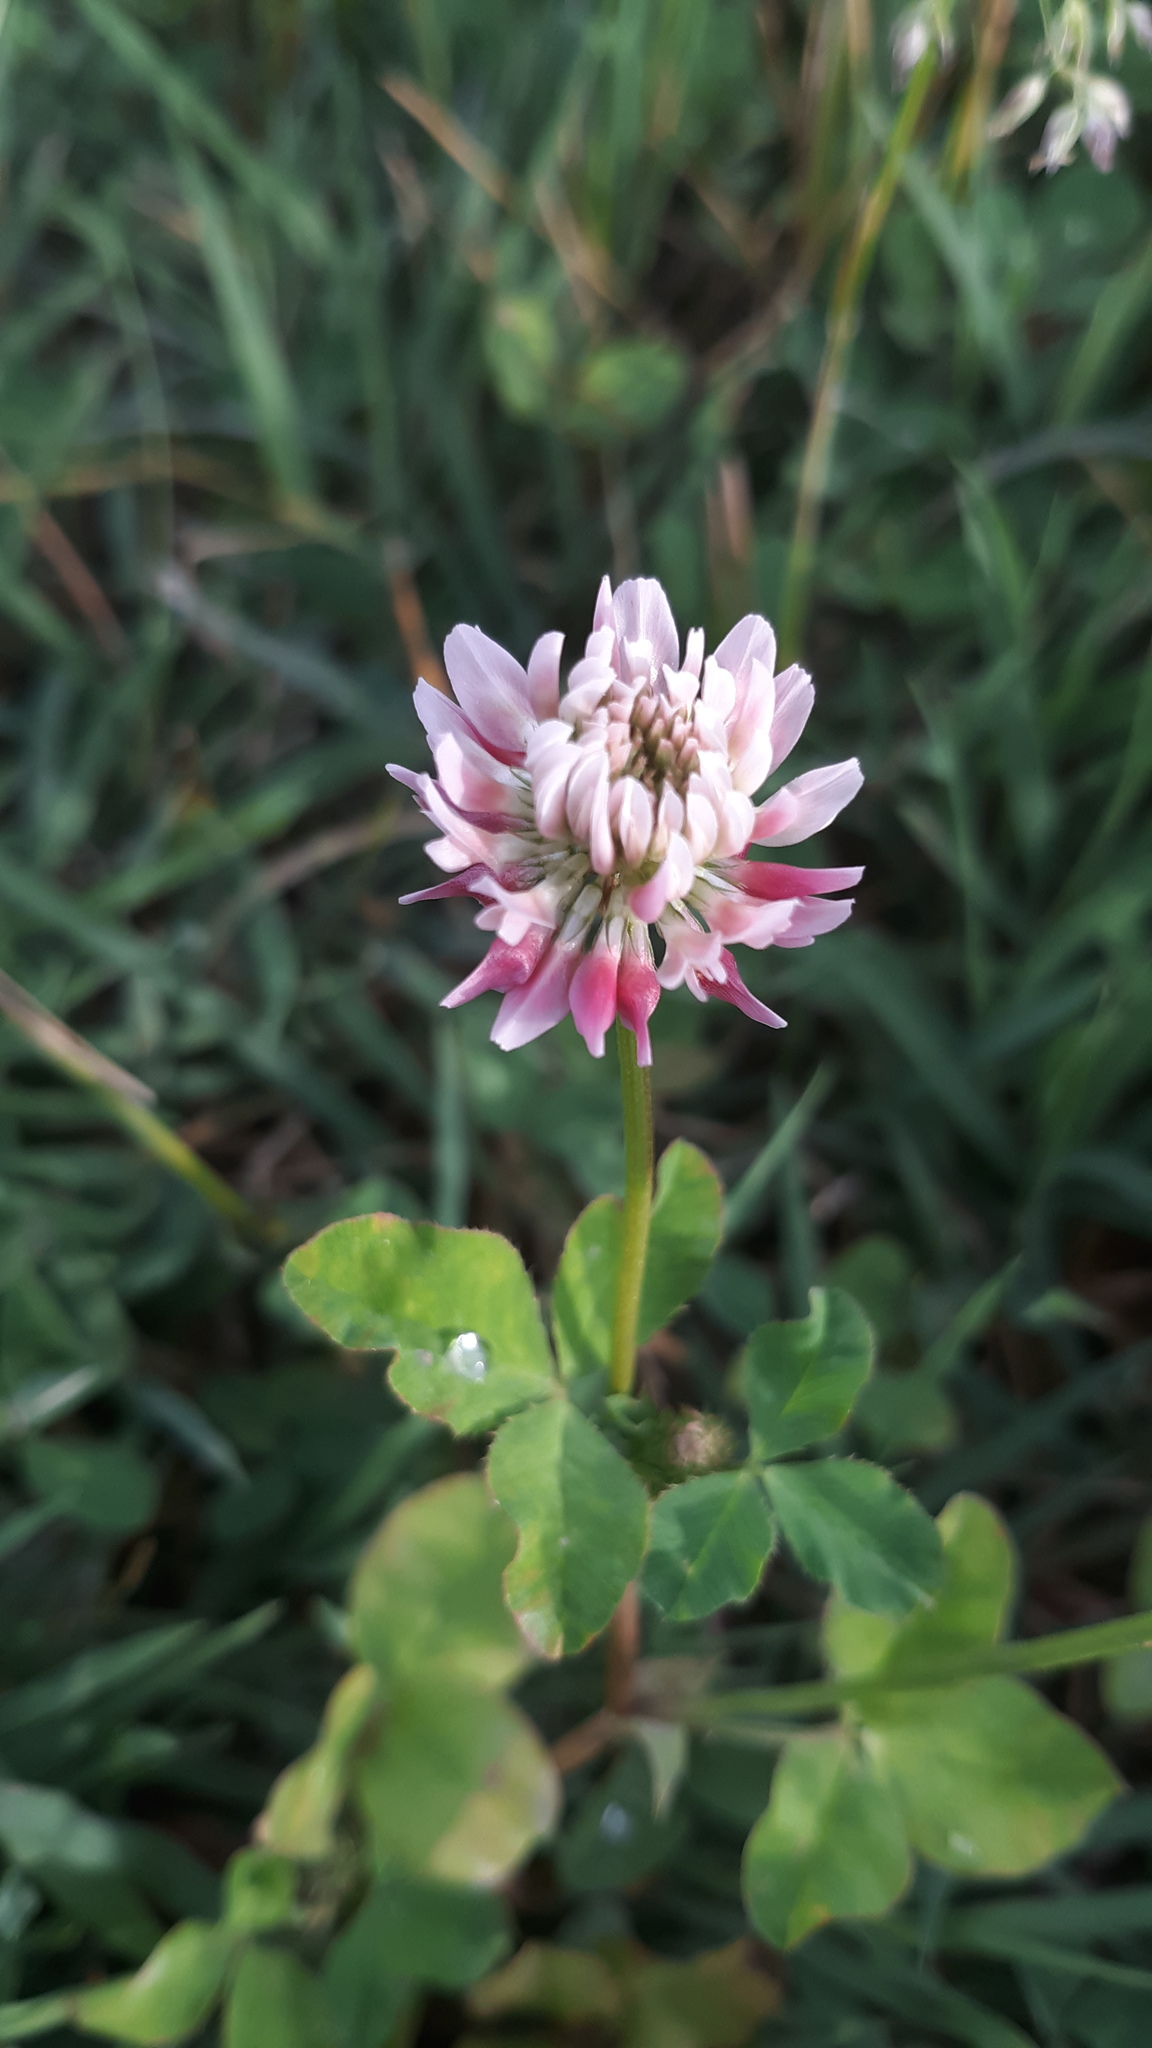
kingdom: Plantae
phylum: Tracheophyta
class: Magnoliopsida
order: Fabales
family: Fabaceae
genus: Trifolium
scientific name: Trifolium hybridum
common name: Alsike clover
